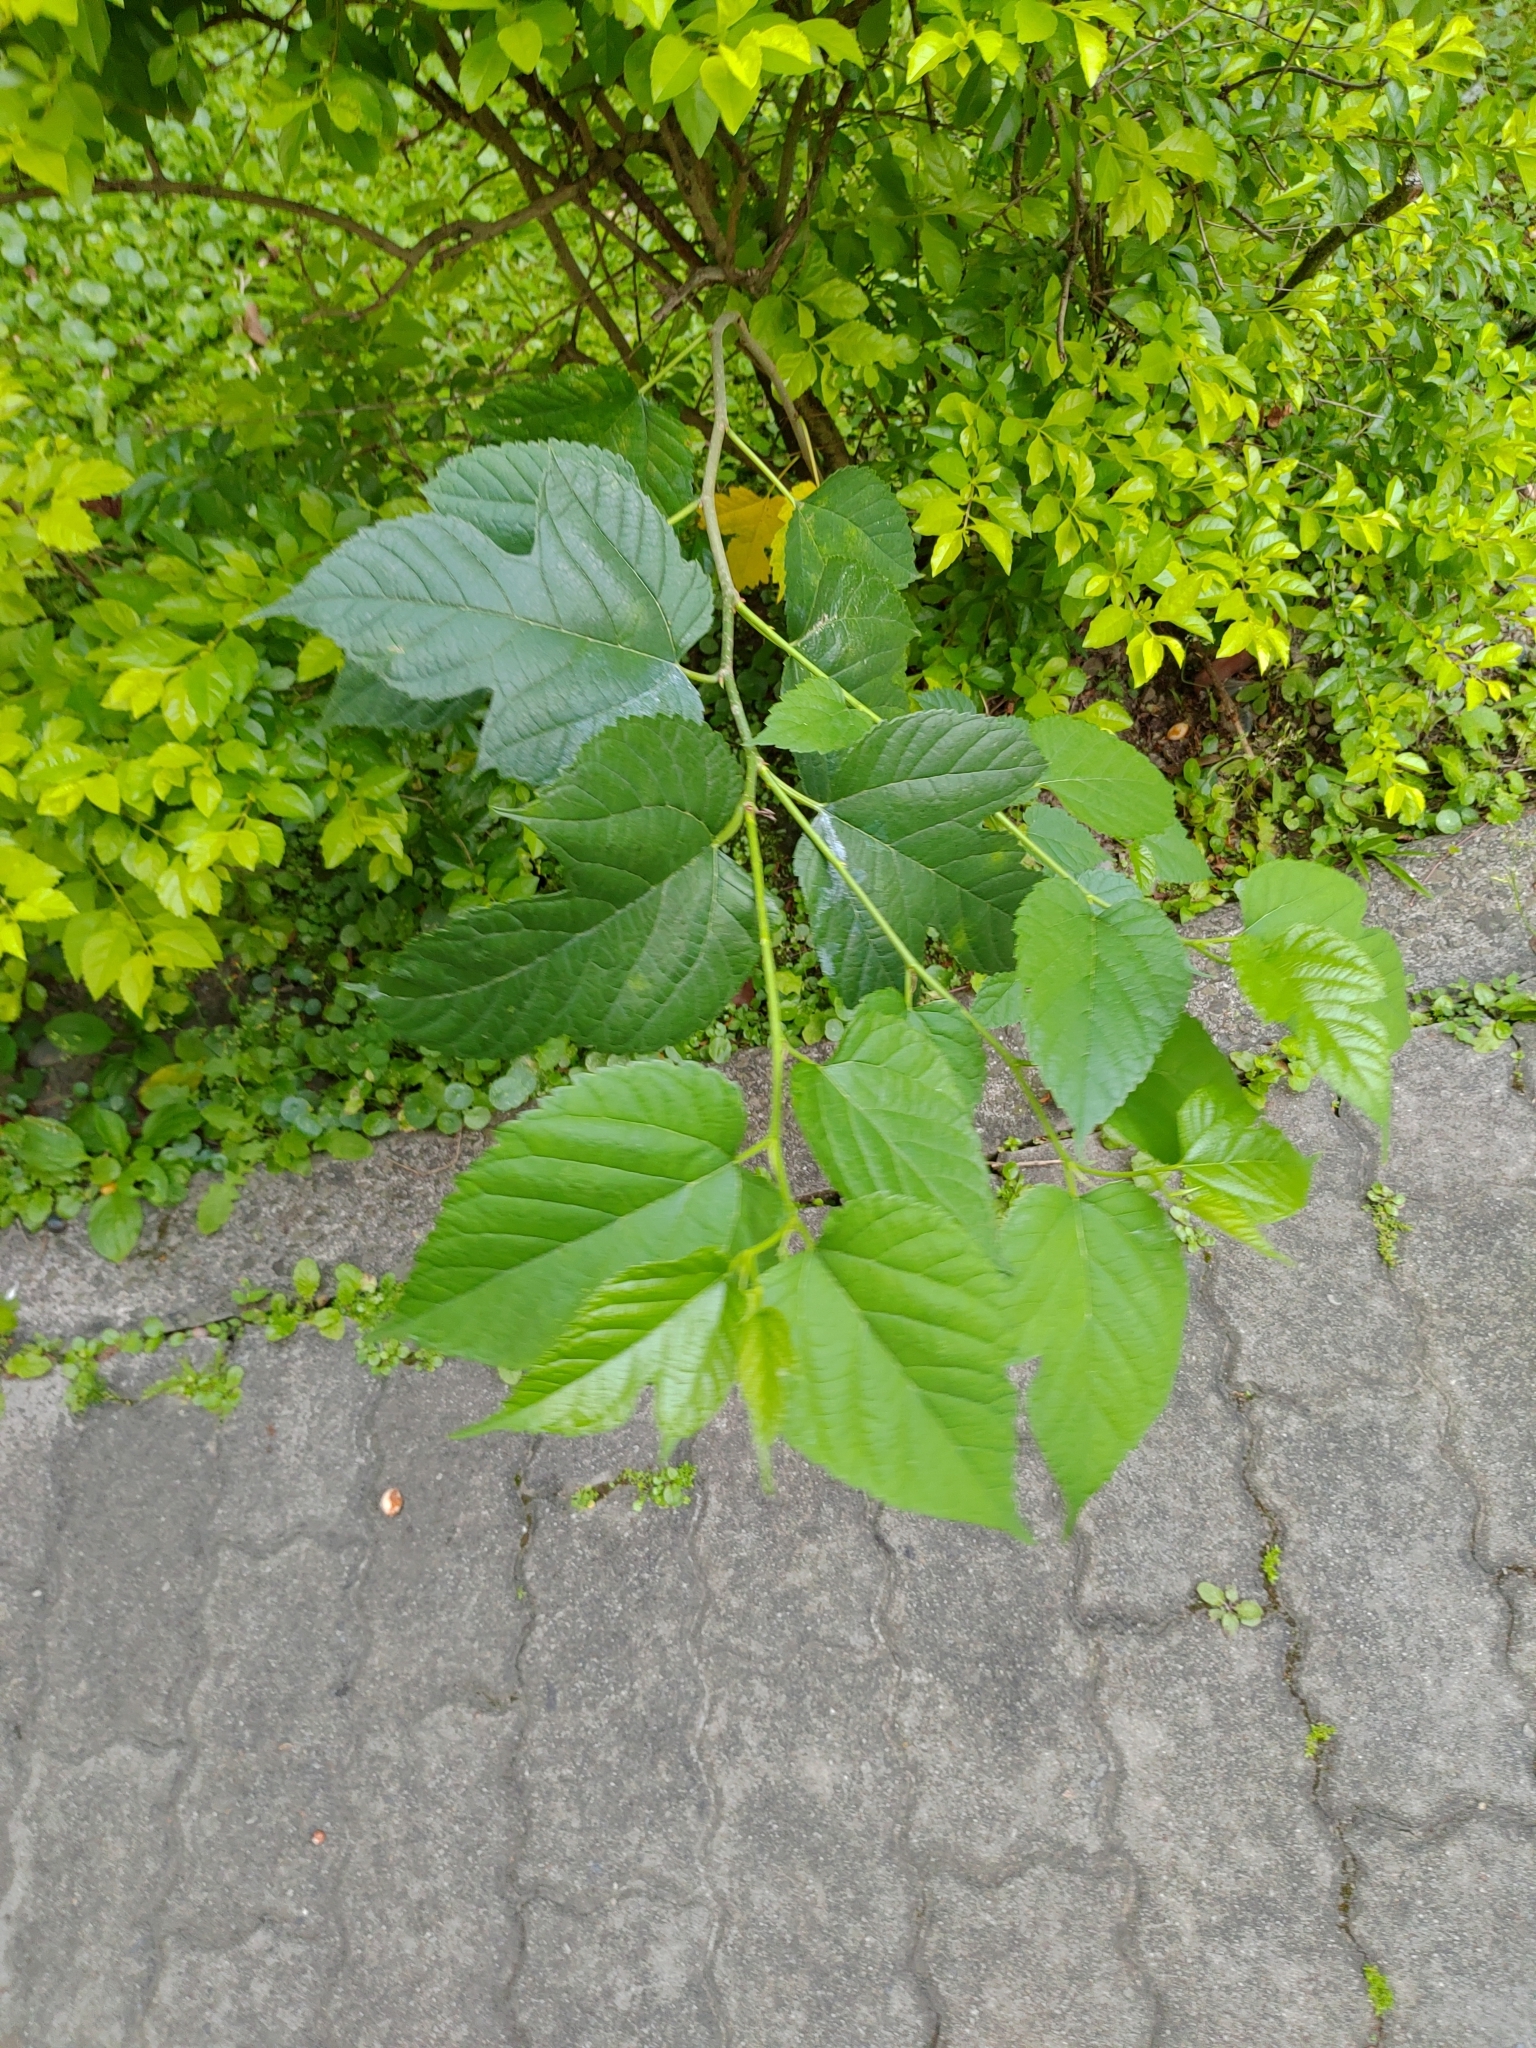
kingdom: Plantae
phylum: Tracheophyta
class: Magnoliopsida
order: Rosales
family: Moraceae
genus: Morus
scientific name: Morus indica
